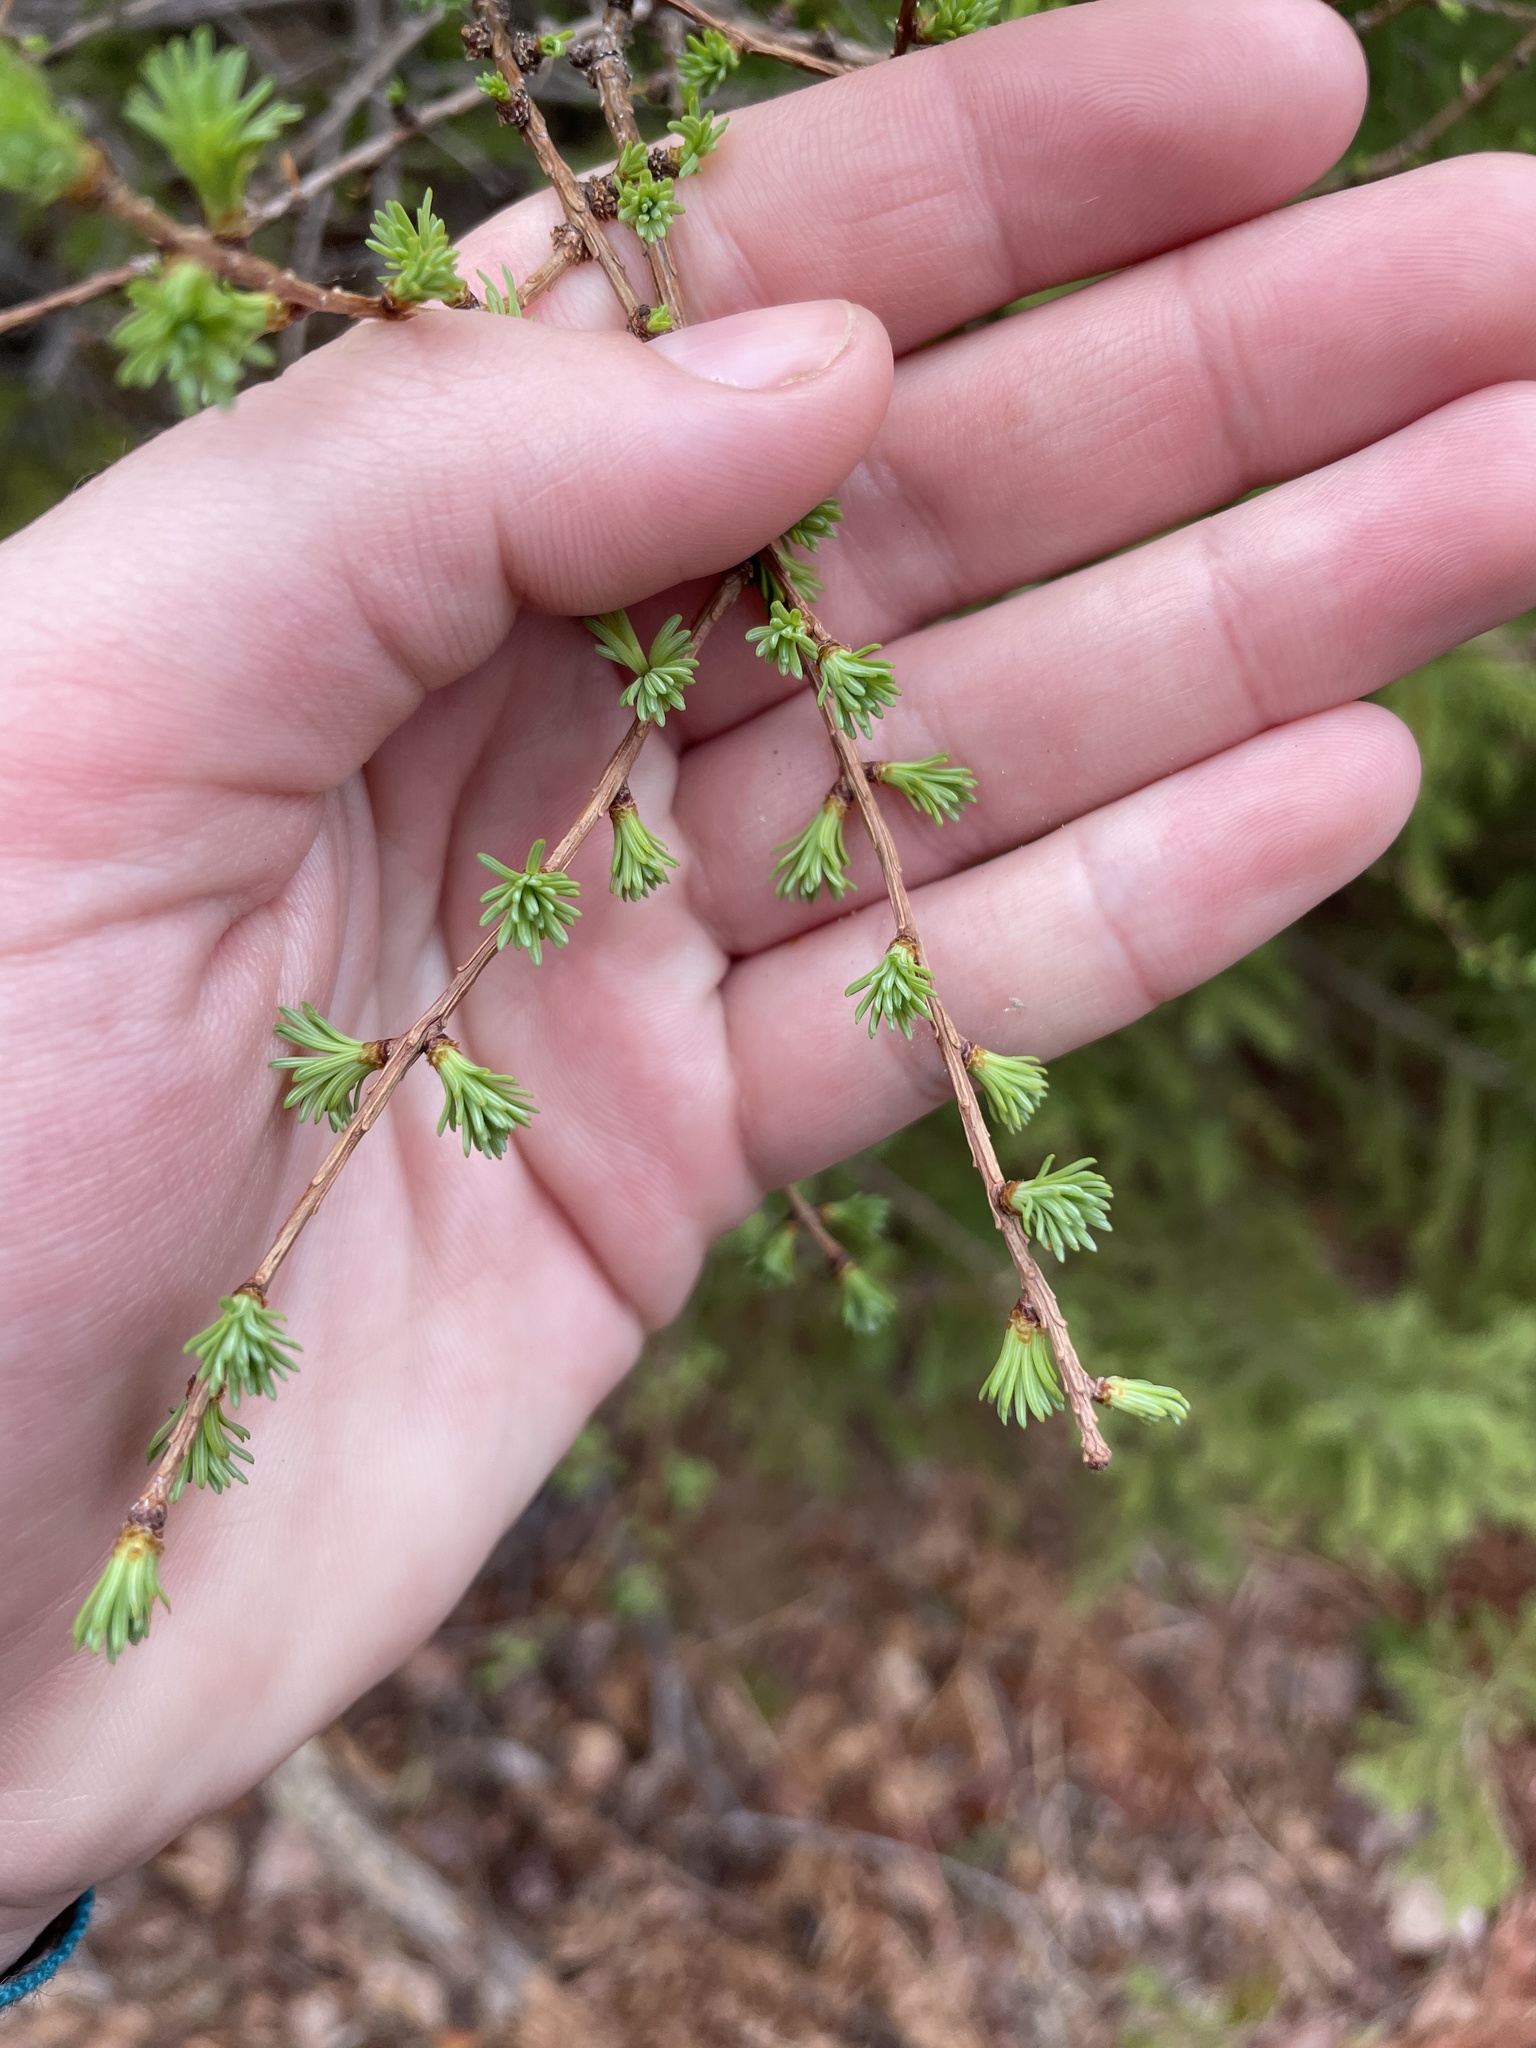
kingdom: Plantae
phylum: Tracheophyta
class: Pinopsida
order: Pinales
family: Pinaceae
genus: Larix
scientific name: Larix laricina
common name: American larch
